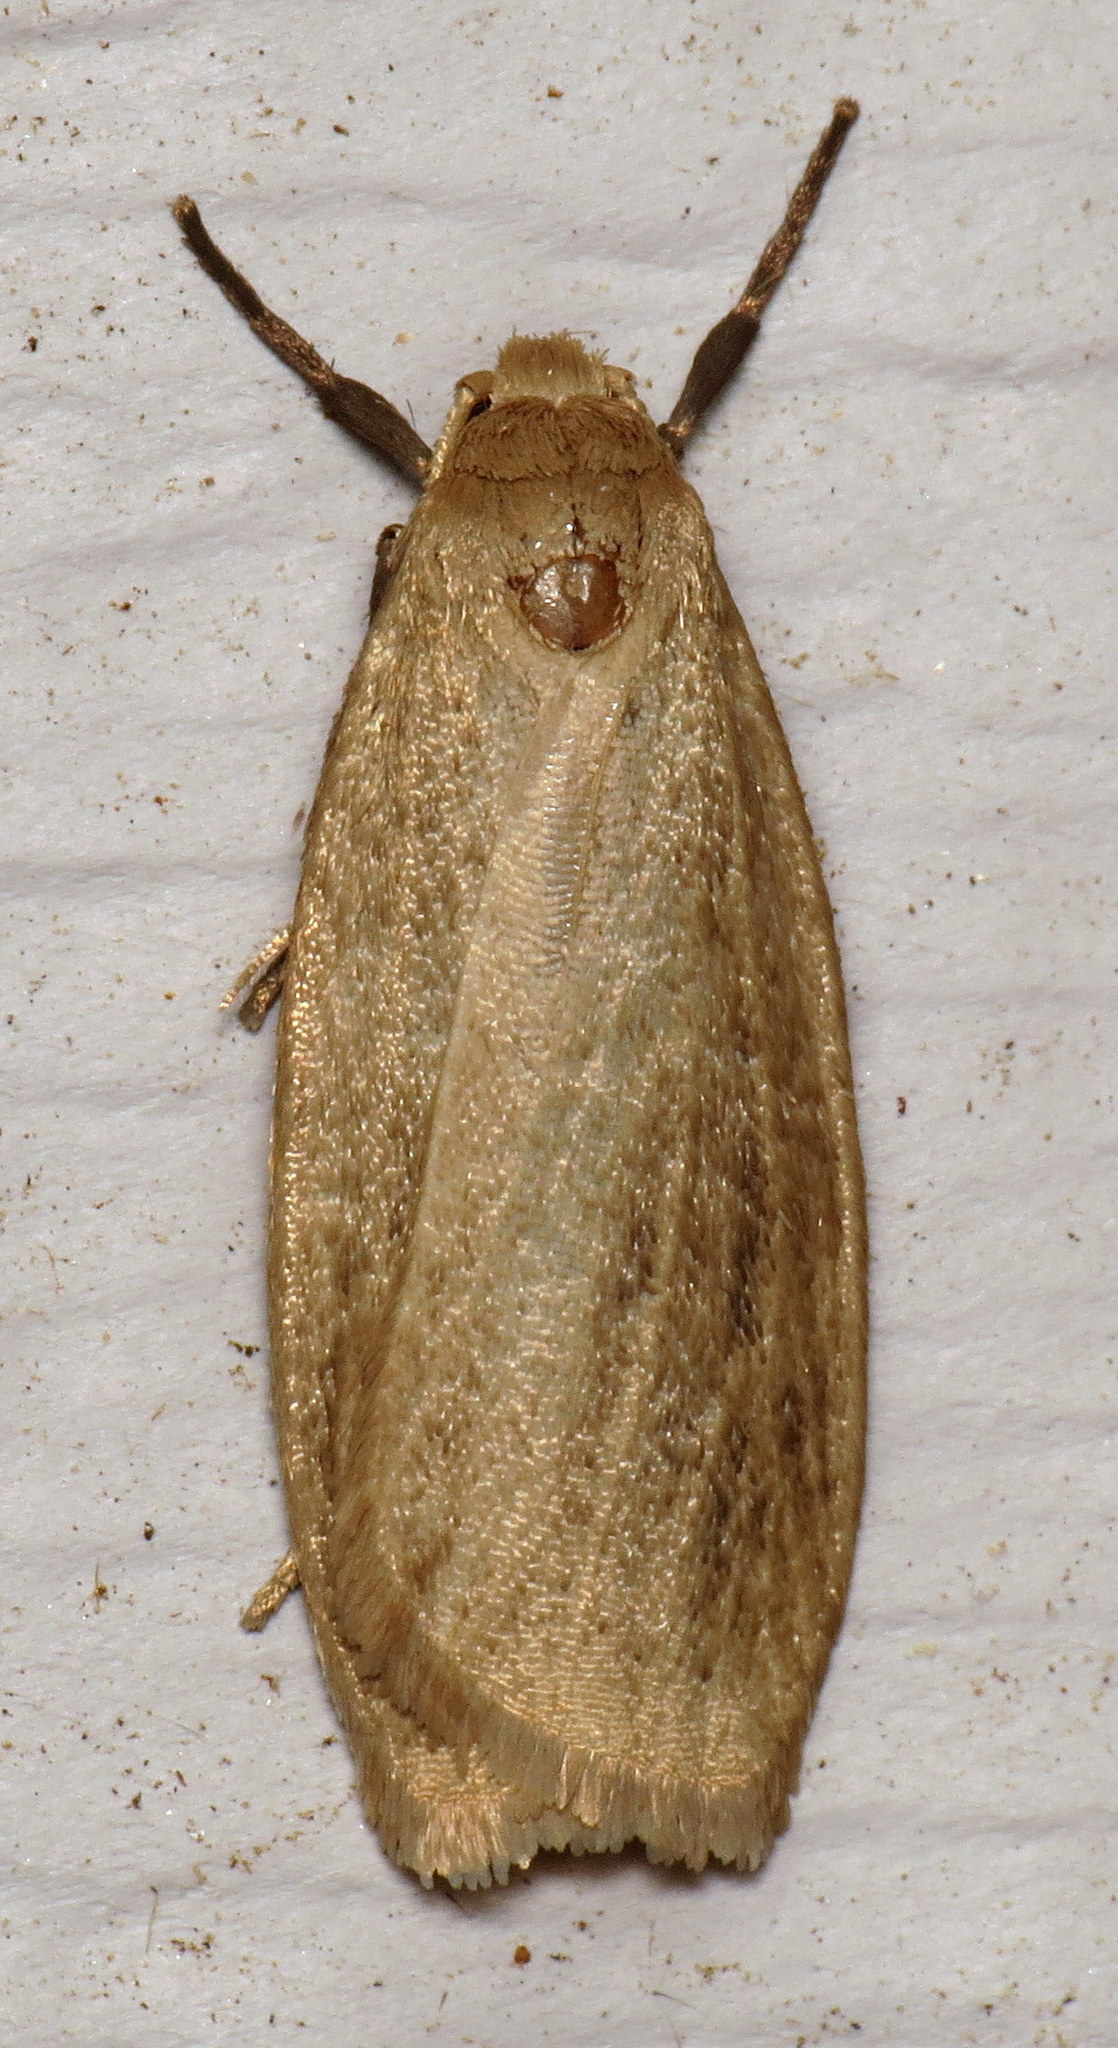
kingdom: Animalia
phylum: Arthropoda
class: Insecta
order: Lepidoptera
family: Erebidae
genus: Crambidia
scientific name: Crambidia pallida
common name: Pale lichen moth
